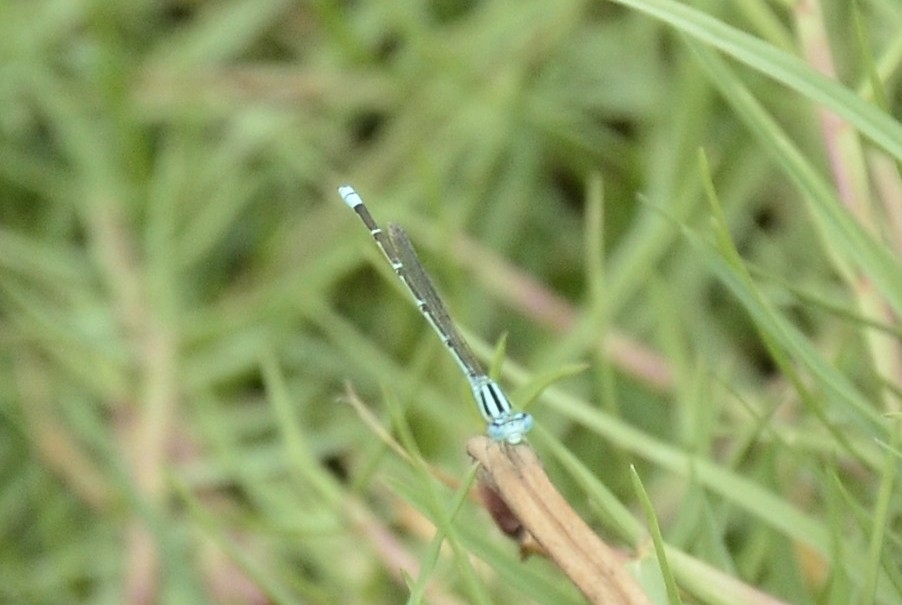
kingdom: Animalia
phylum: Arthropoda
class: Insecta
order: Odonata
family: Coenagrionidae
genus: Pseudagrion
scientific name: Pseudagrion microcephalum
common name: Blue riverdamsel
